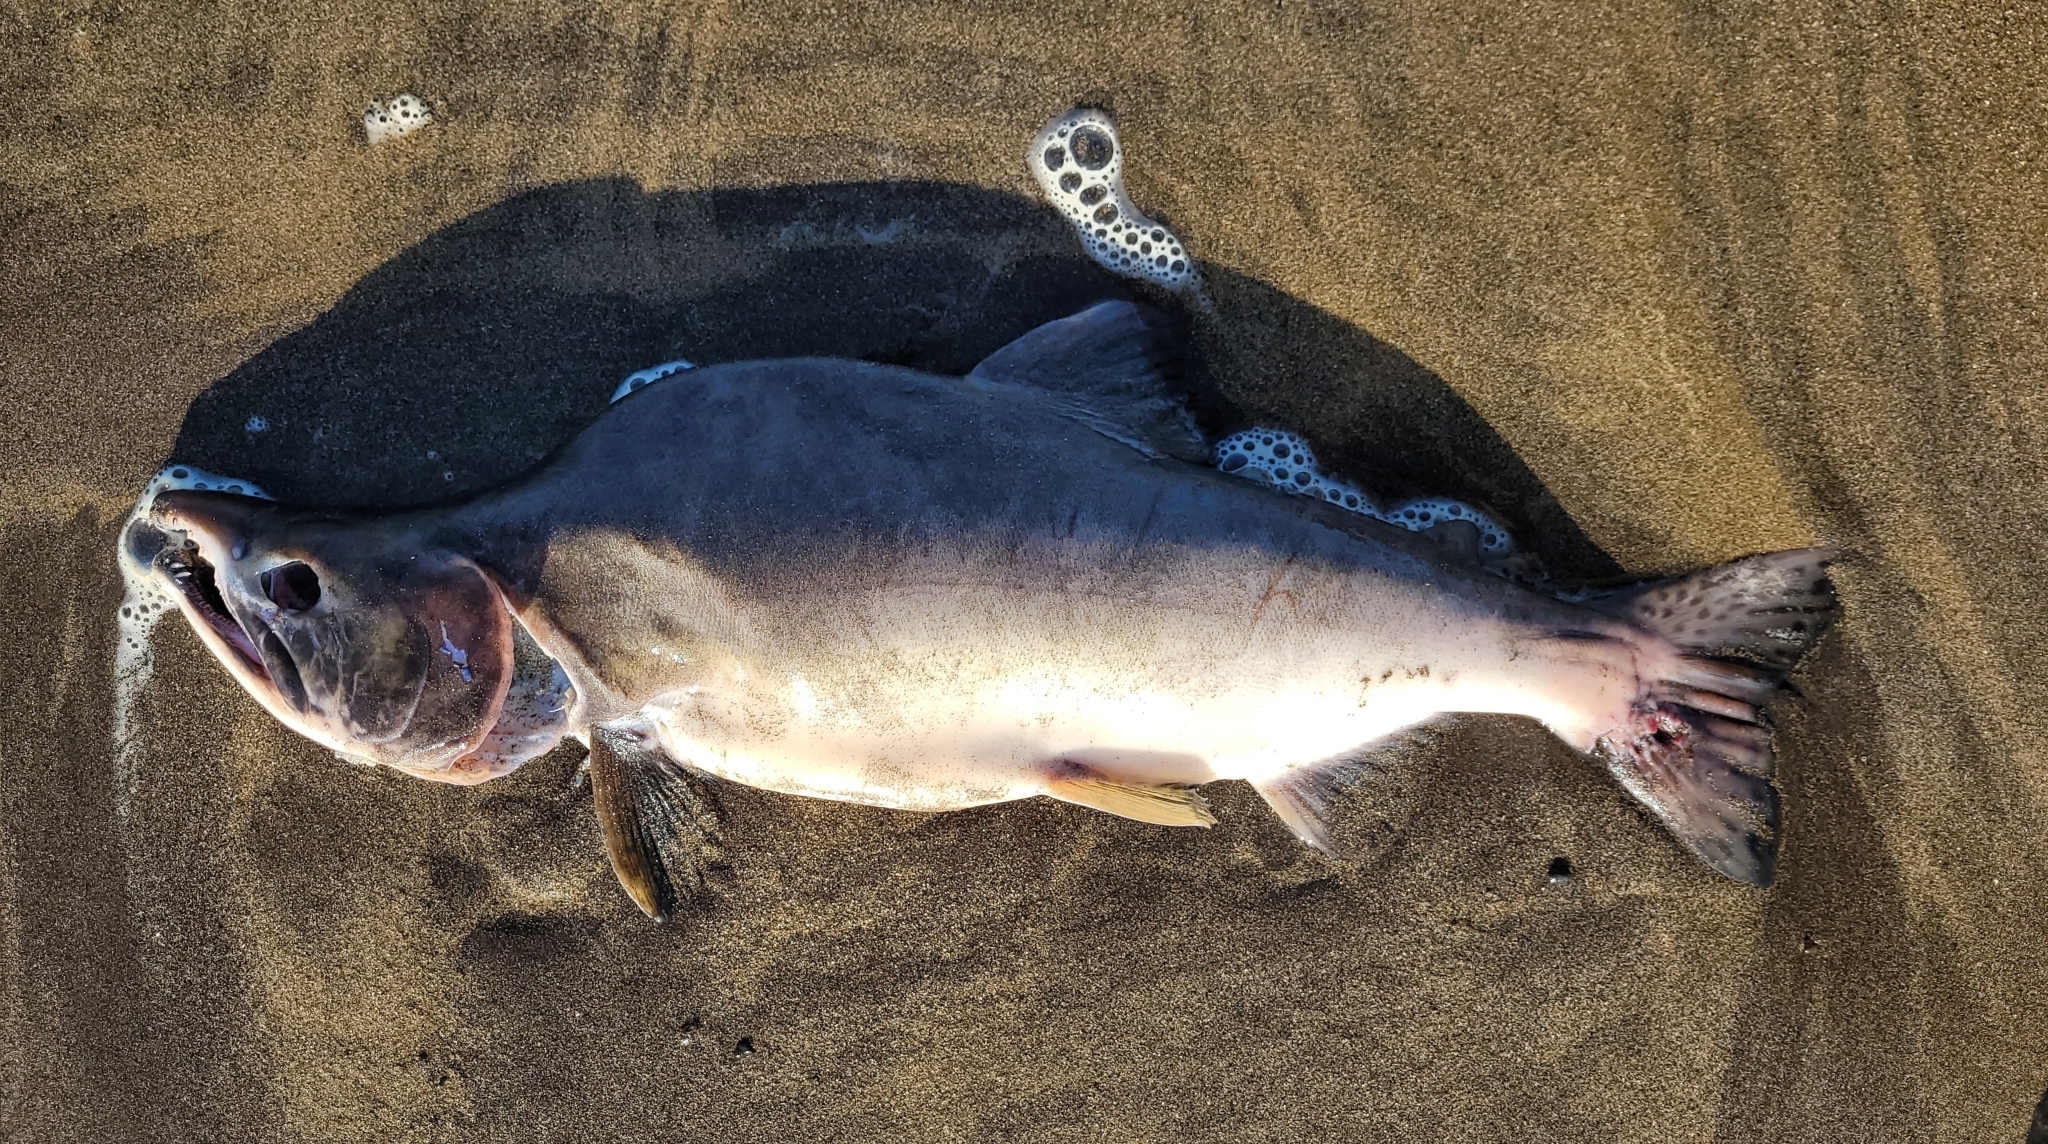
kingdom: Animalia
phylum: Chordata
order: Salmoniformes
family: Salmonidae
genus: Oncorhynchus
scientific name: Oncorhynchus gorbuscha
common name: Humpback salmon
